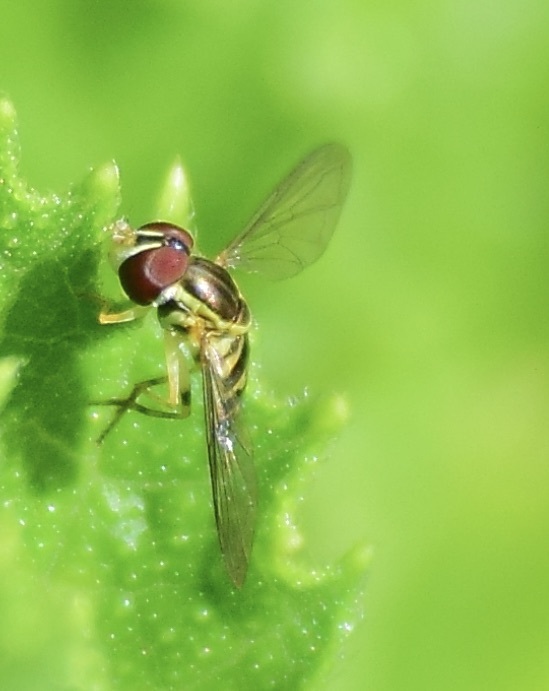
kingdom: Animalia
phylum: Arthropoda
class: Insecta
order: Diptera
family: Syrphidae
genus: Toxomerus
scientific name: Toxomerus geminatus
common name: Eastern calligrapher
